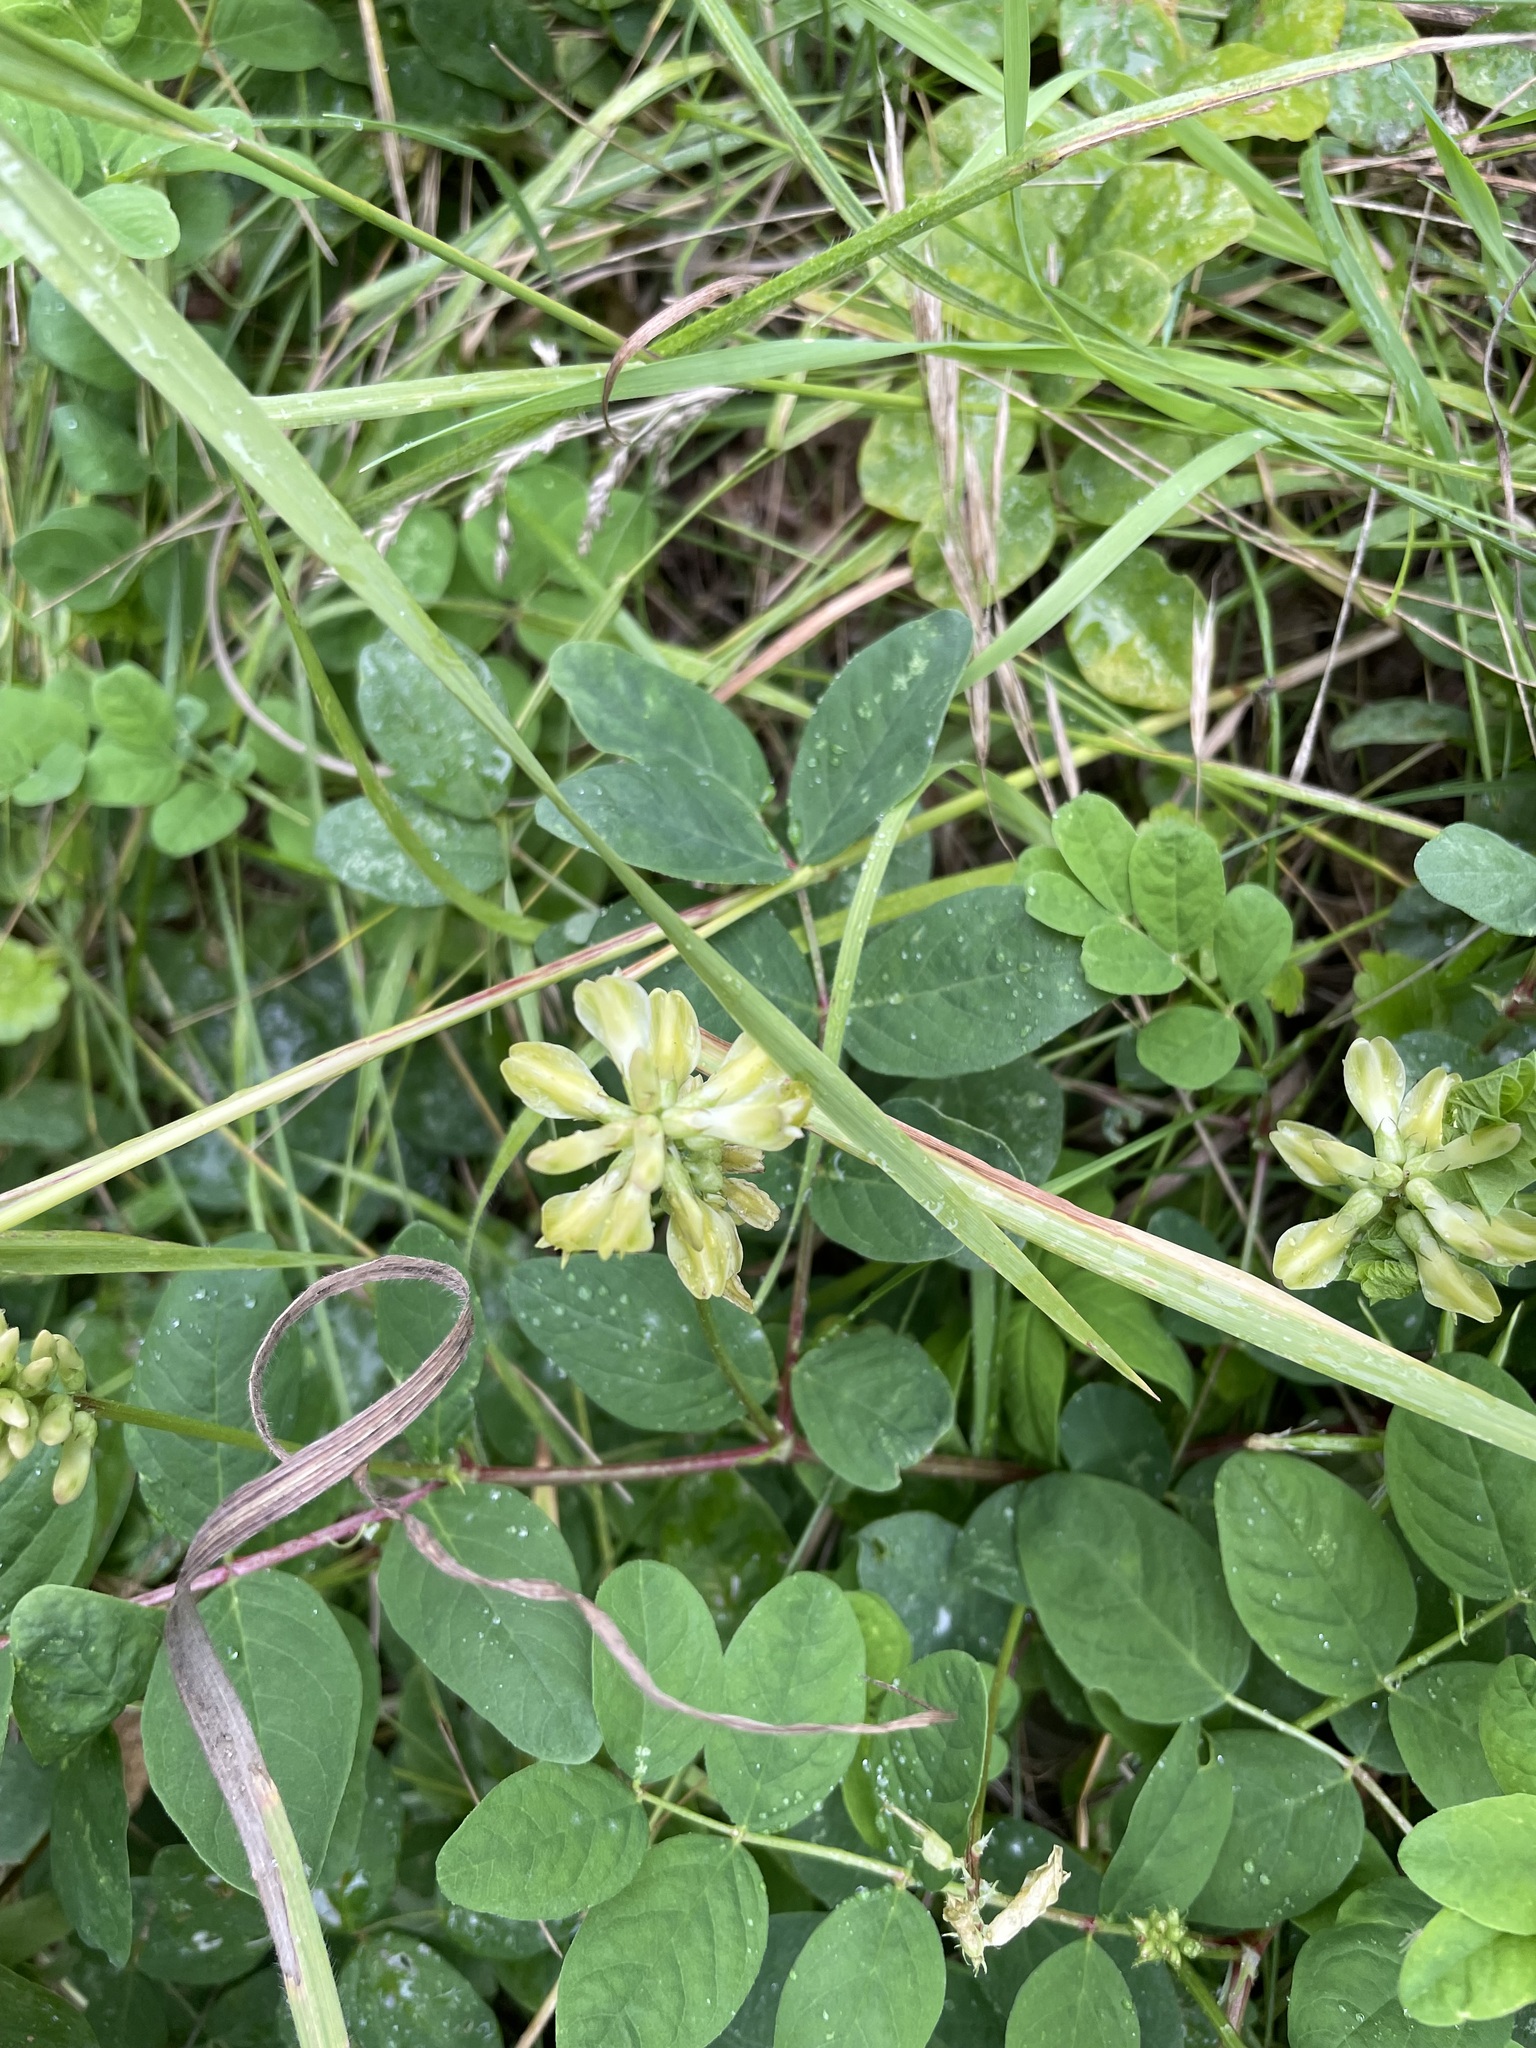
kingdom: Plantae
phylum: Tracheophyta
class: Magnoliopsida
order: Fabales
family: Fabaceae
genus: Astragalus
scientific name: Astragalus glycyphyllos
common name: Wild liquorice
